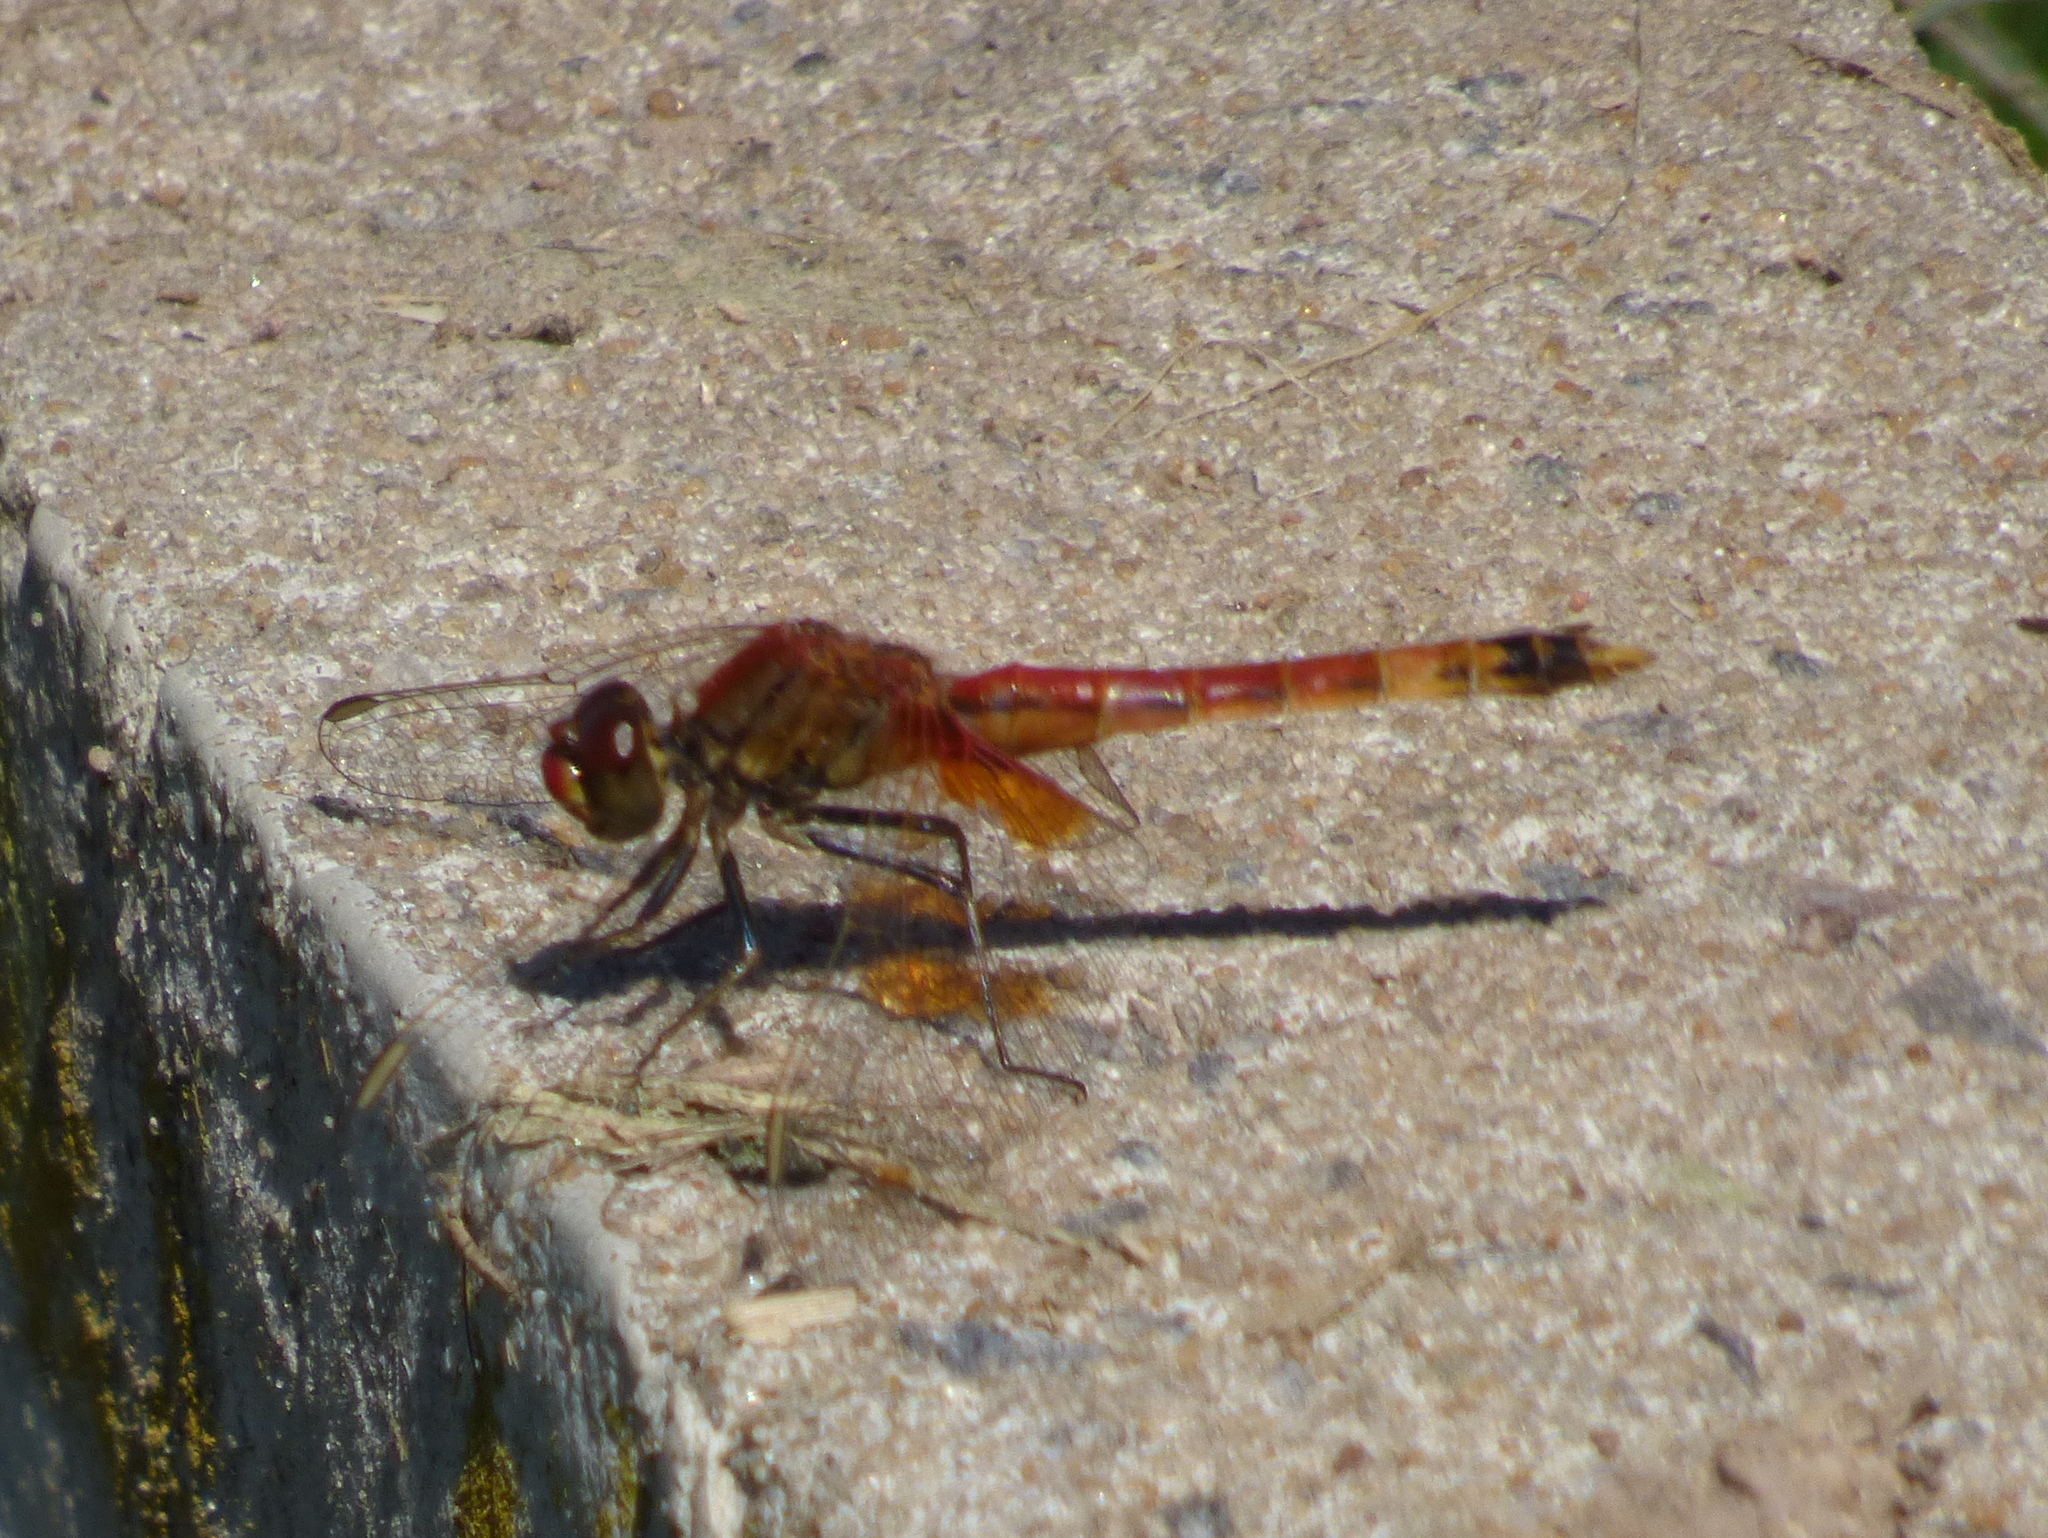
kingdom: Animalia
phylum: Arthropoda
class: Insecta
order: Odonata
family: Libellulidae
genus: Erythrodiplax
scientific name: Erythrodiplax corallina
